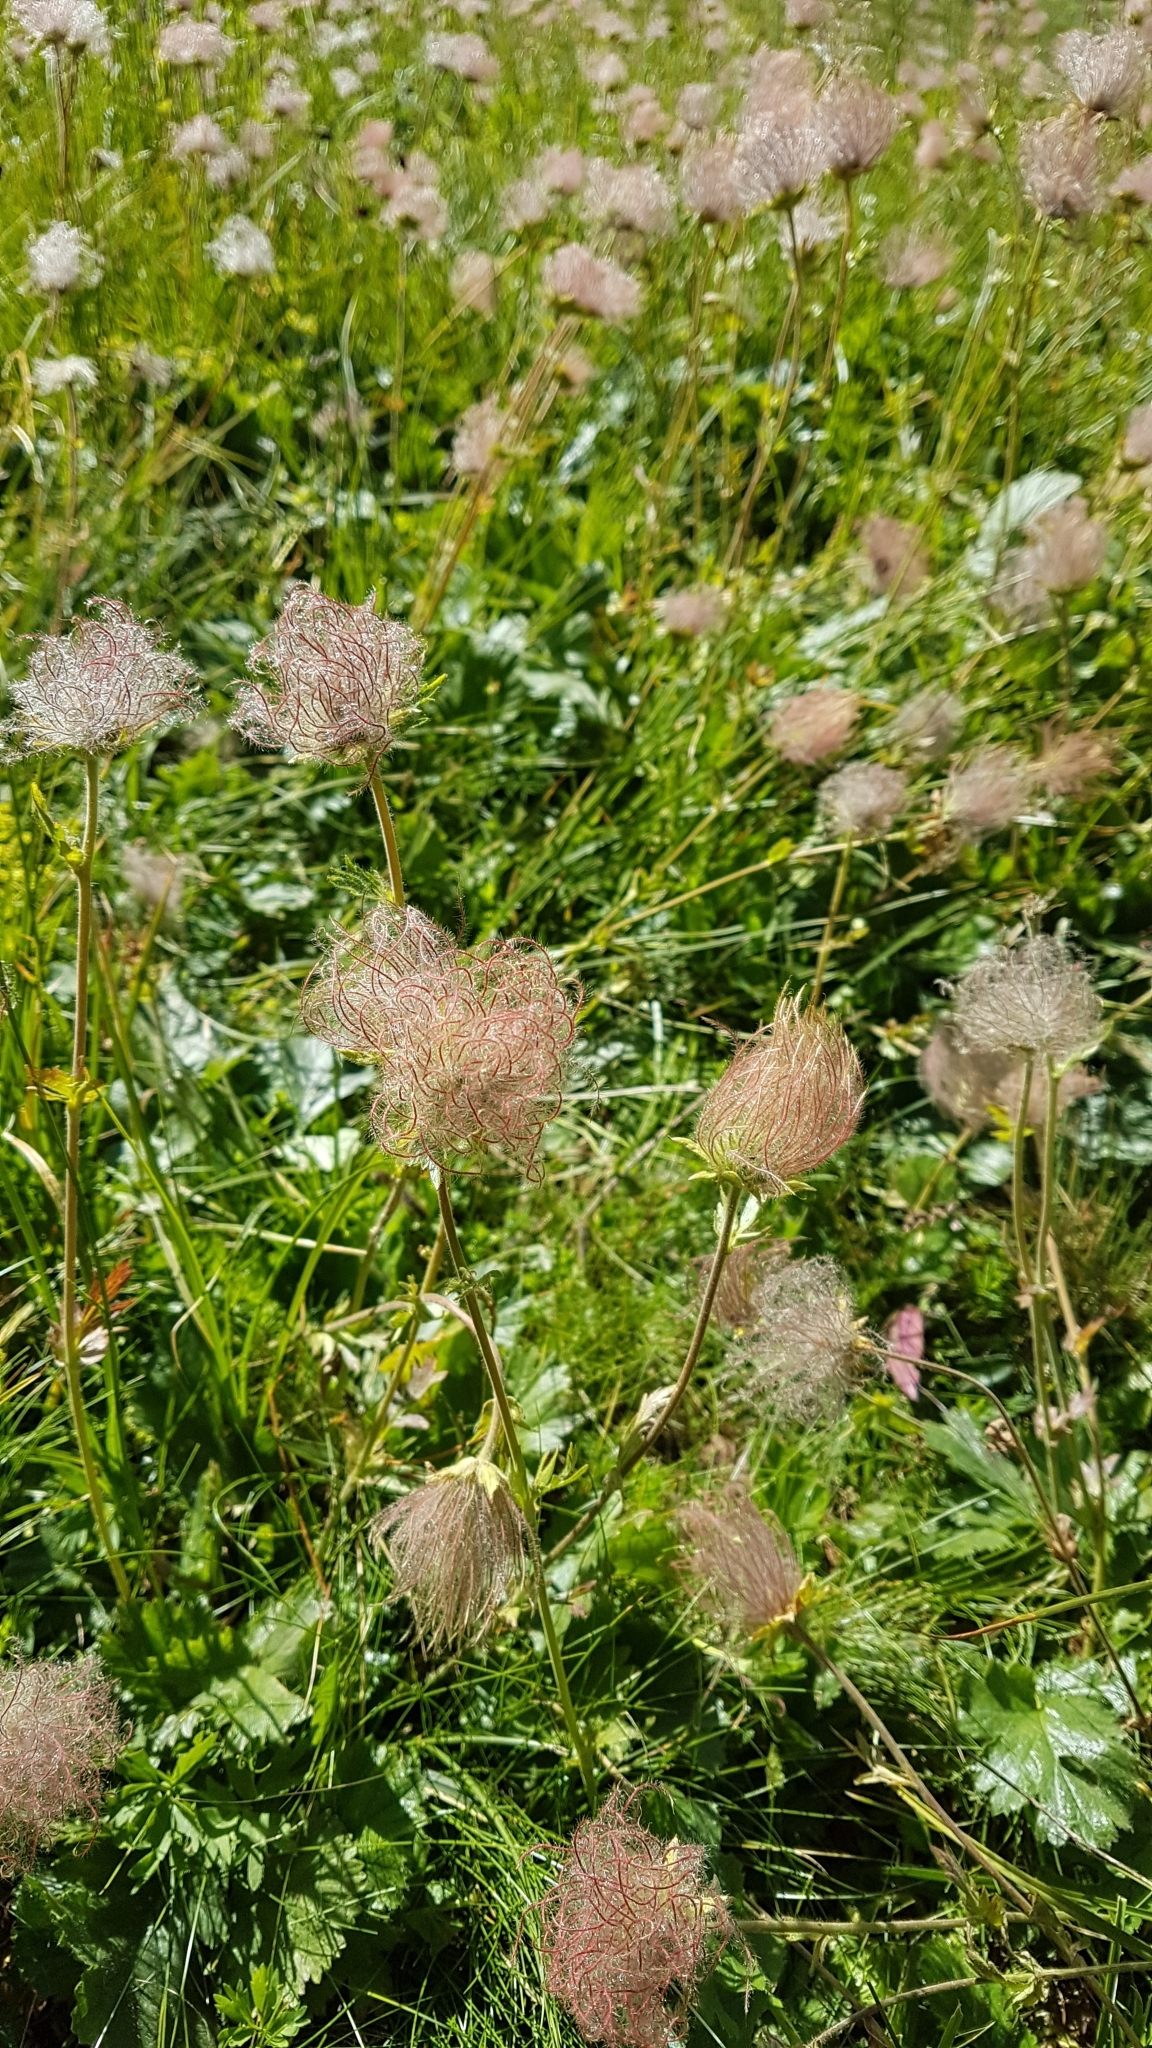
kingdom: Plantae
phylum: Tracheophyta
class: Magnoliopsida
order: Rosales
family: Rosaceae
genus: Geum
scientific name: Geum montanum
